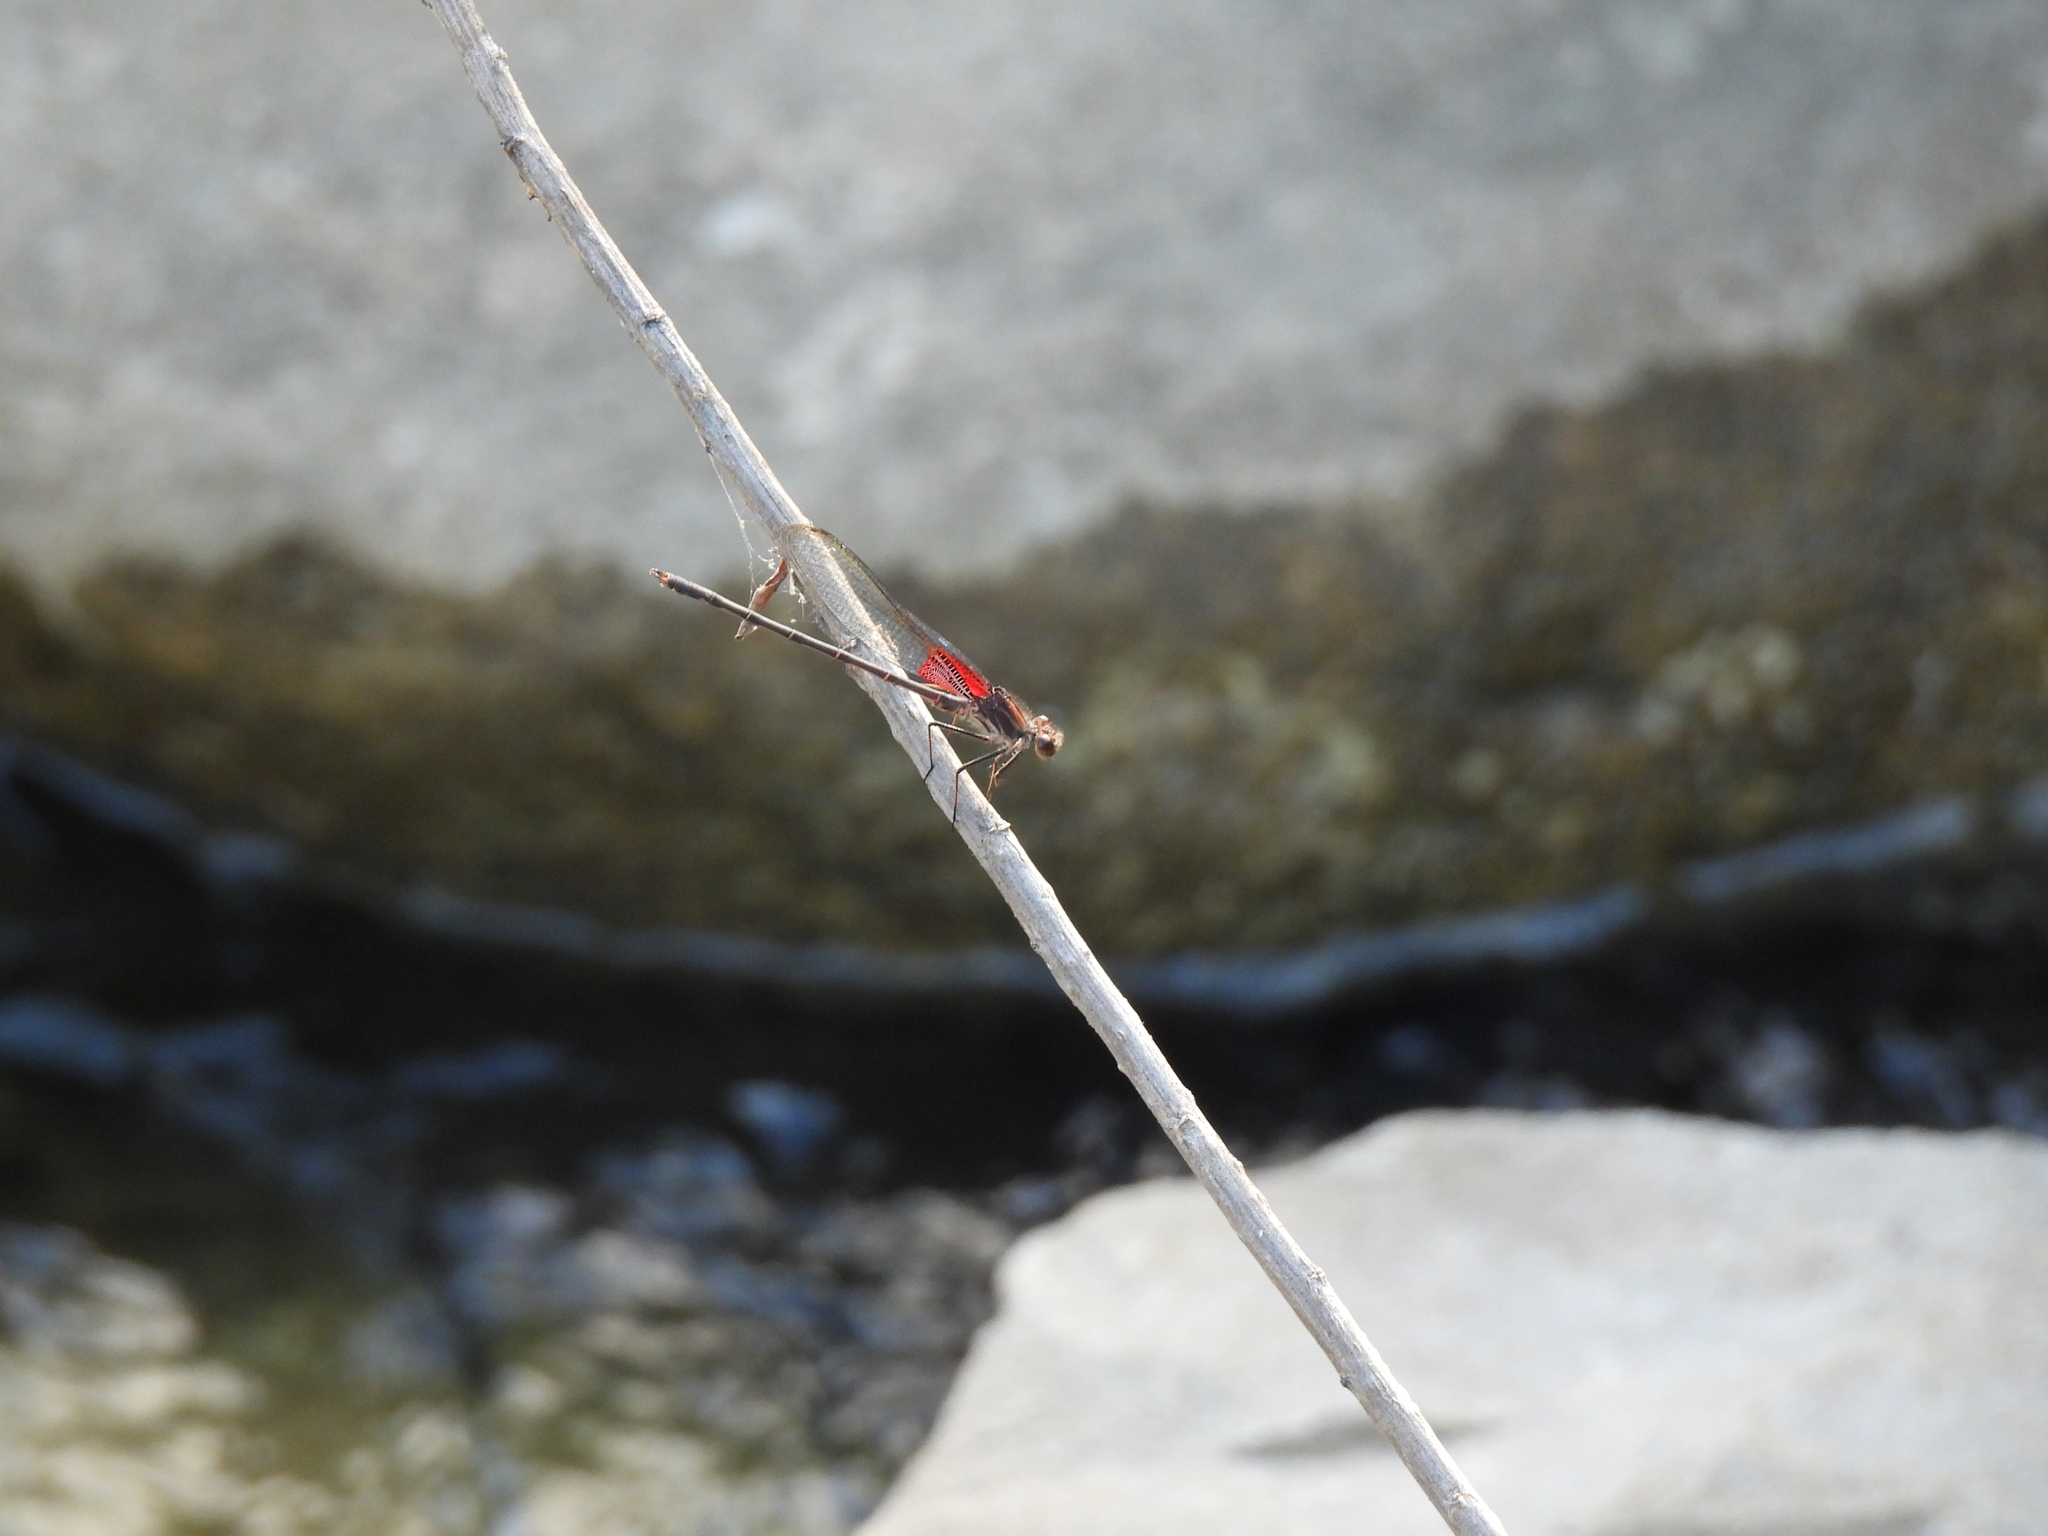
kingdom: Animalia
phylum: Arthropoda
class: Insecta
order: Odonata
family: Calopterygidae
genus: Hetaerina
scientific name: Hetaerina vulnerata
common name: Canyon rubyspot
